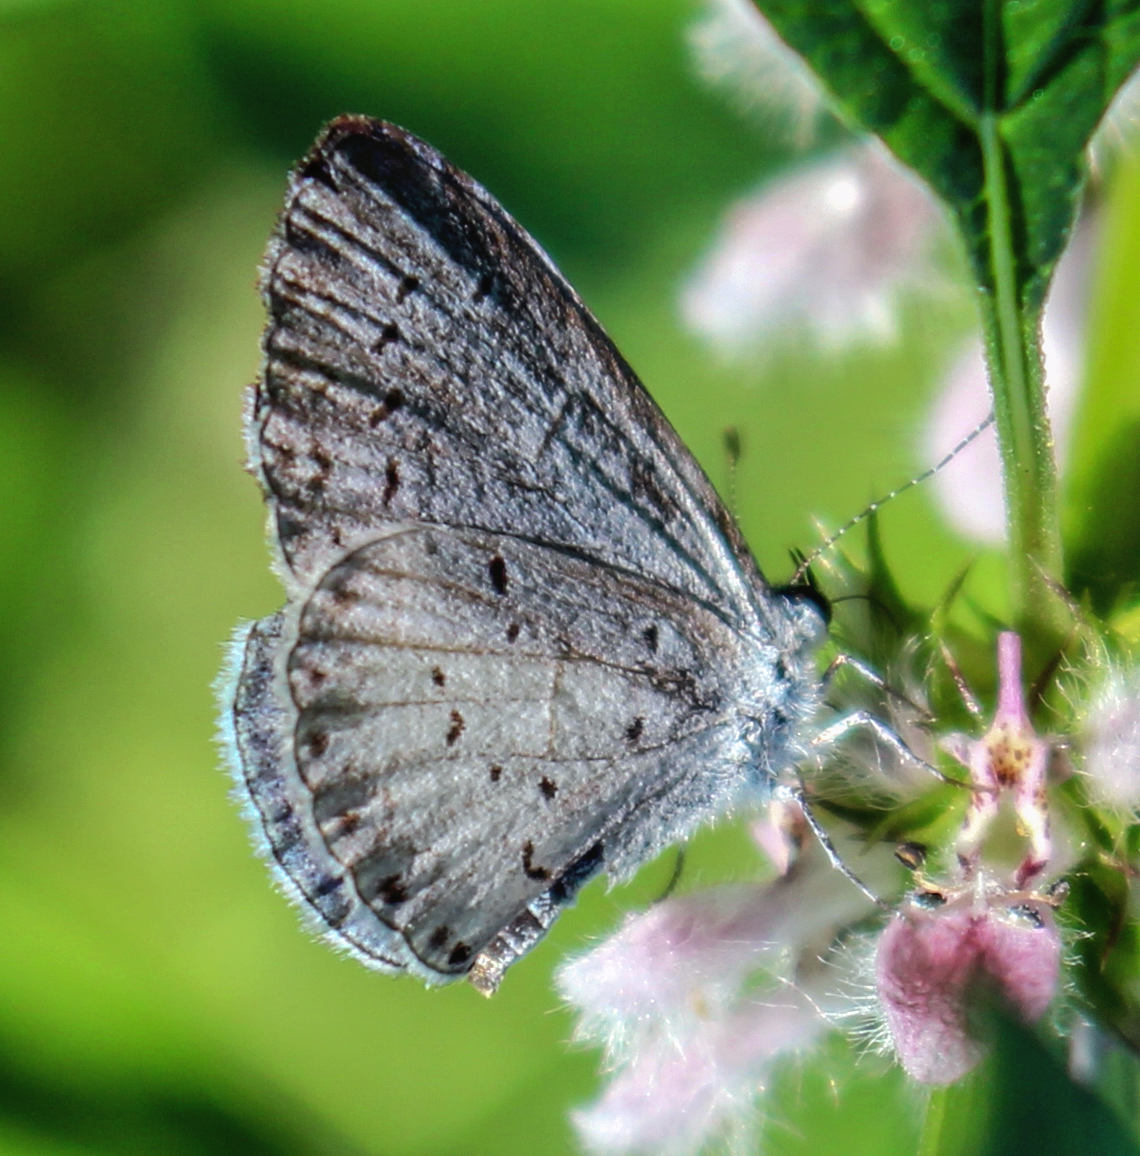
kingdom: Animalia
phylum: Arthropoda
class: Insecta
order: Lepidoptera
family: Lycaenidae
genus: Cyaniris
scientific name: Cyaniris neglecta
